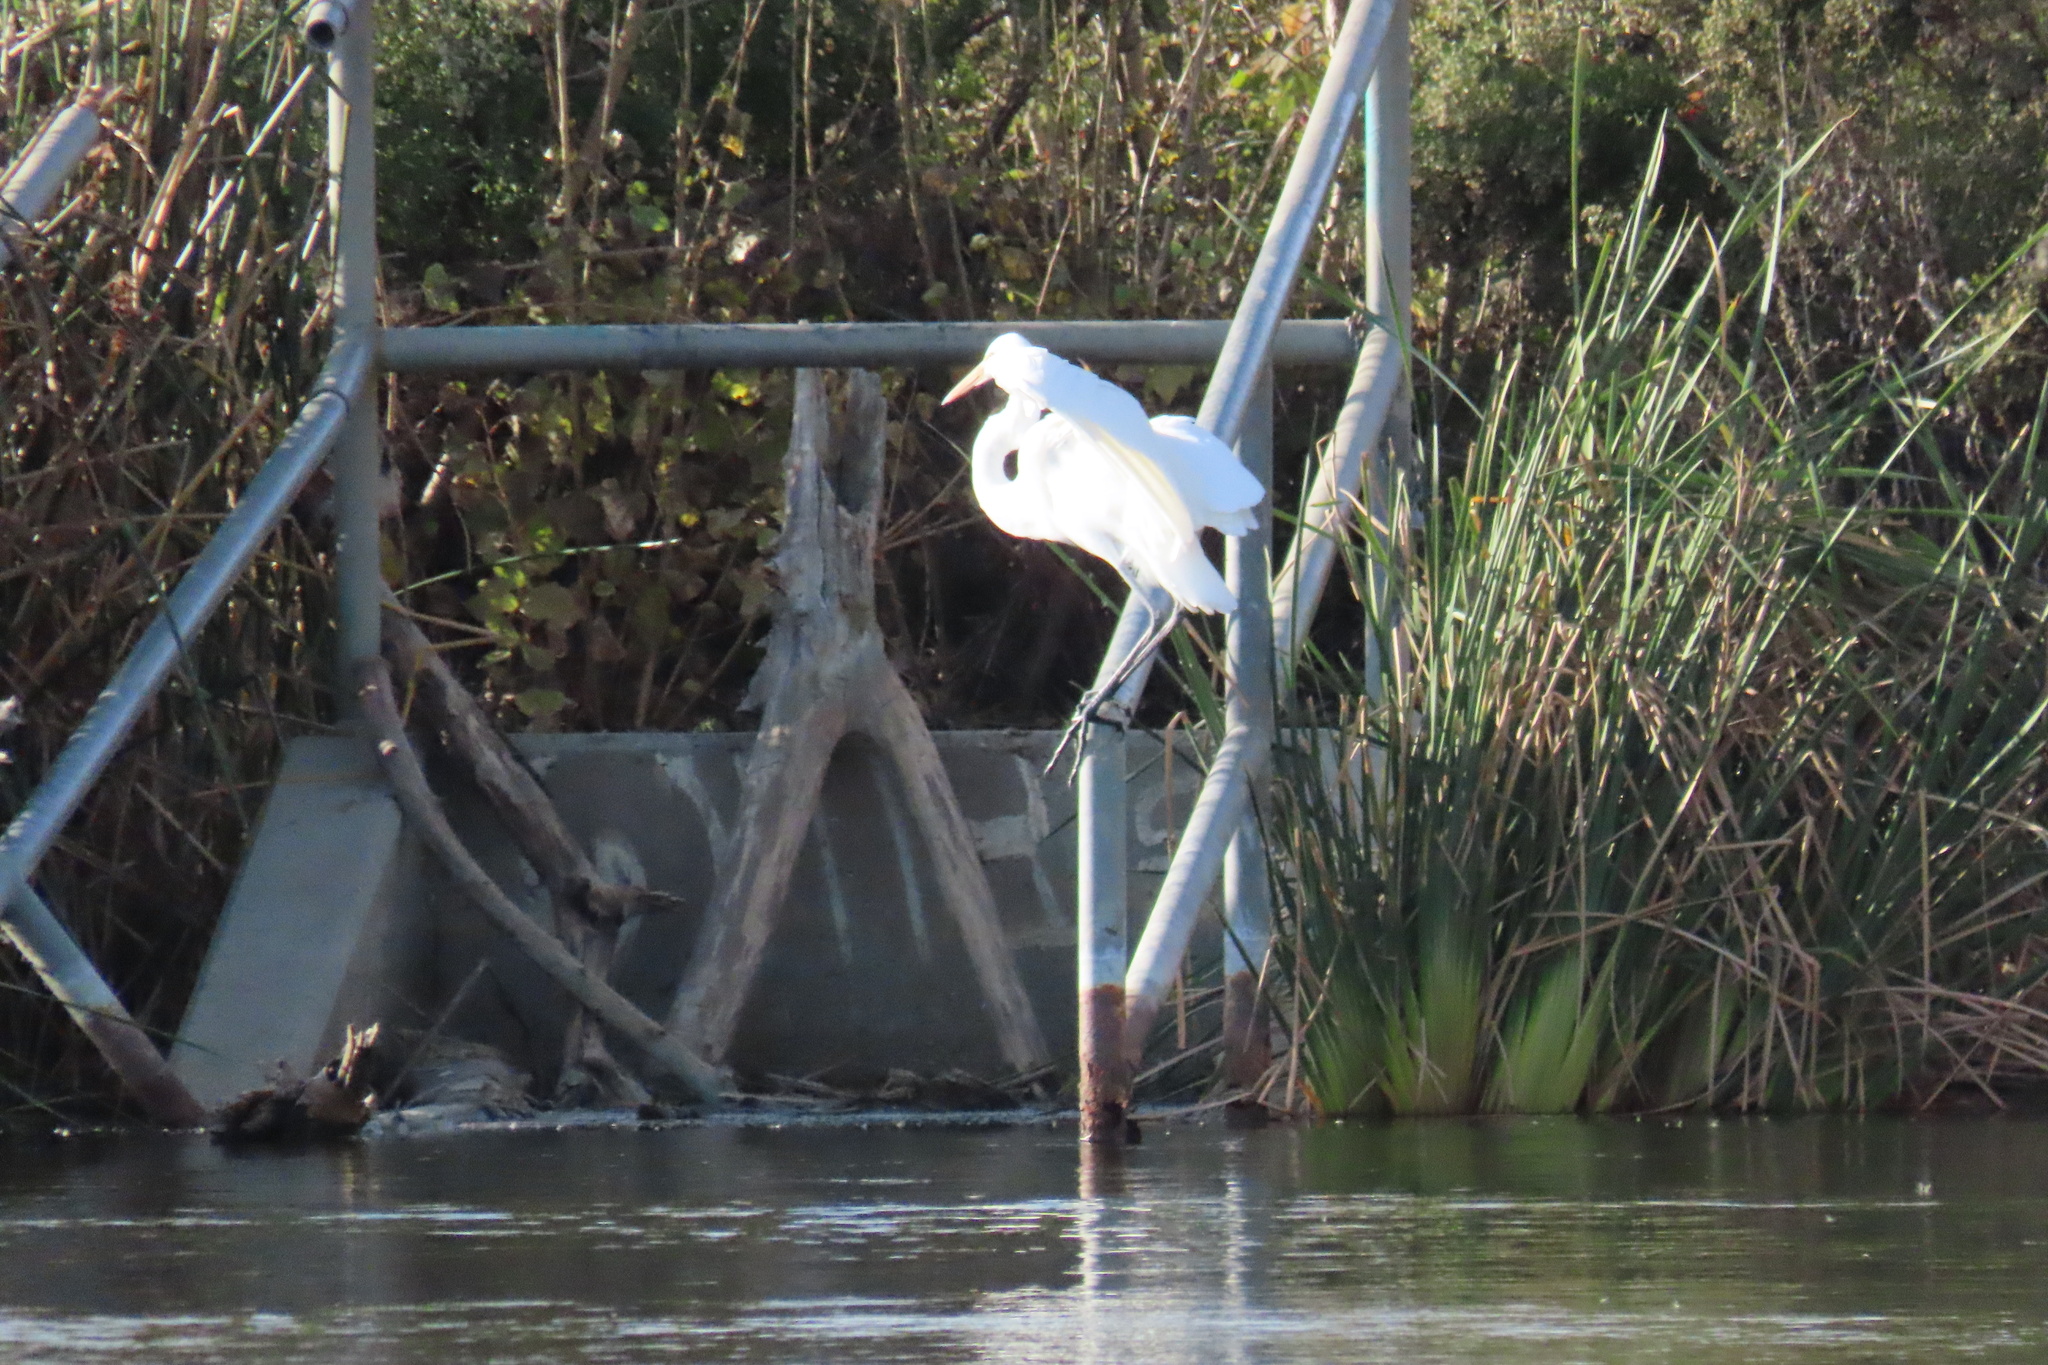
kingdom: Animalia
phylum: Chordata
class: Aves
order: Pelecaniformes
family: Ardeidae
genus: Ardea
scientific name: Ardea alba
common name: Great egret
